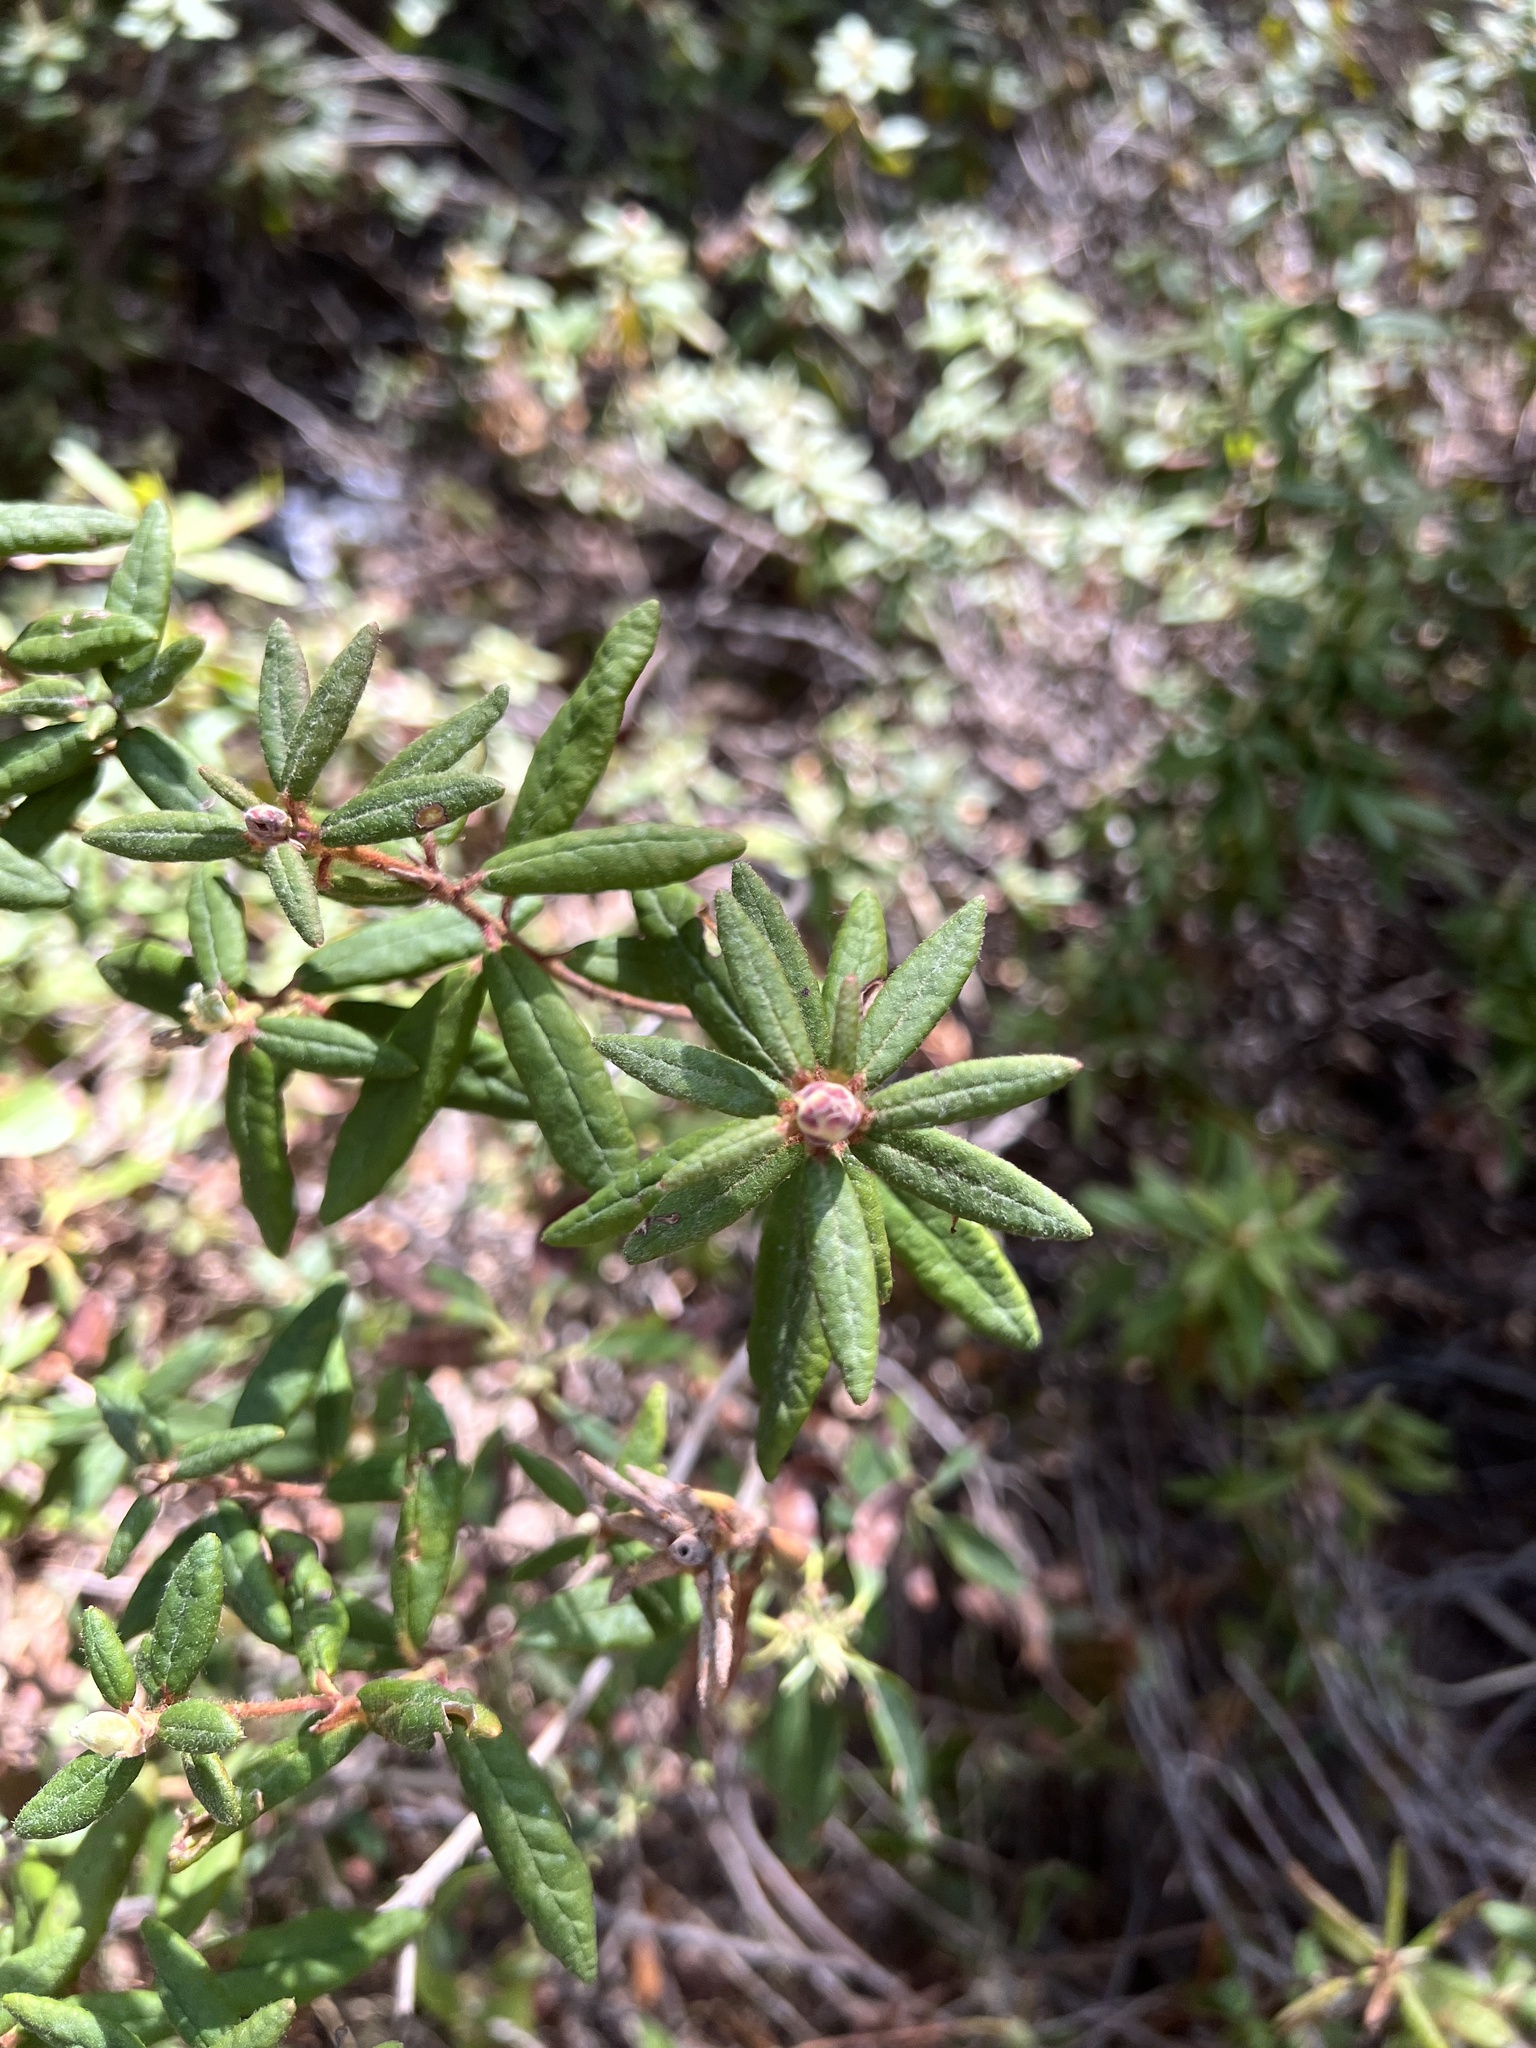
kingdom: Plantae
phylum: Tracheophyta
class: Magnoliopsida
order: Ericales
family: Ericaceae
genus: Rhododendron
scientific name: Rhododendron groenlandicum
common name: Bog labrador tea
